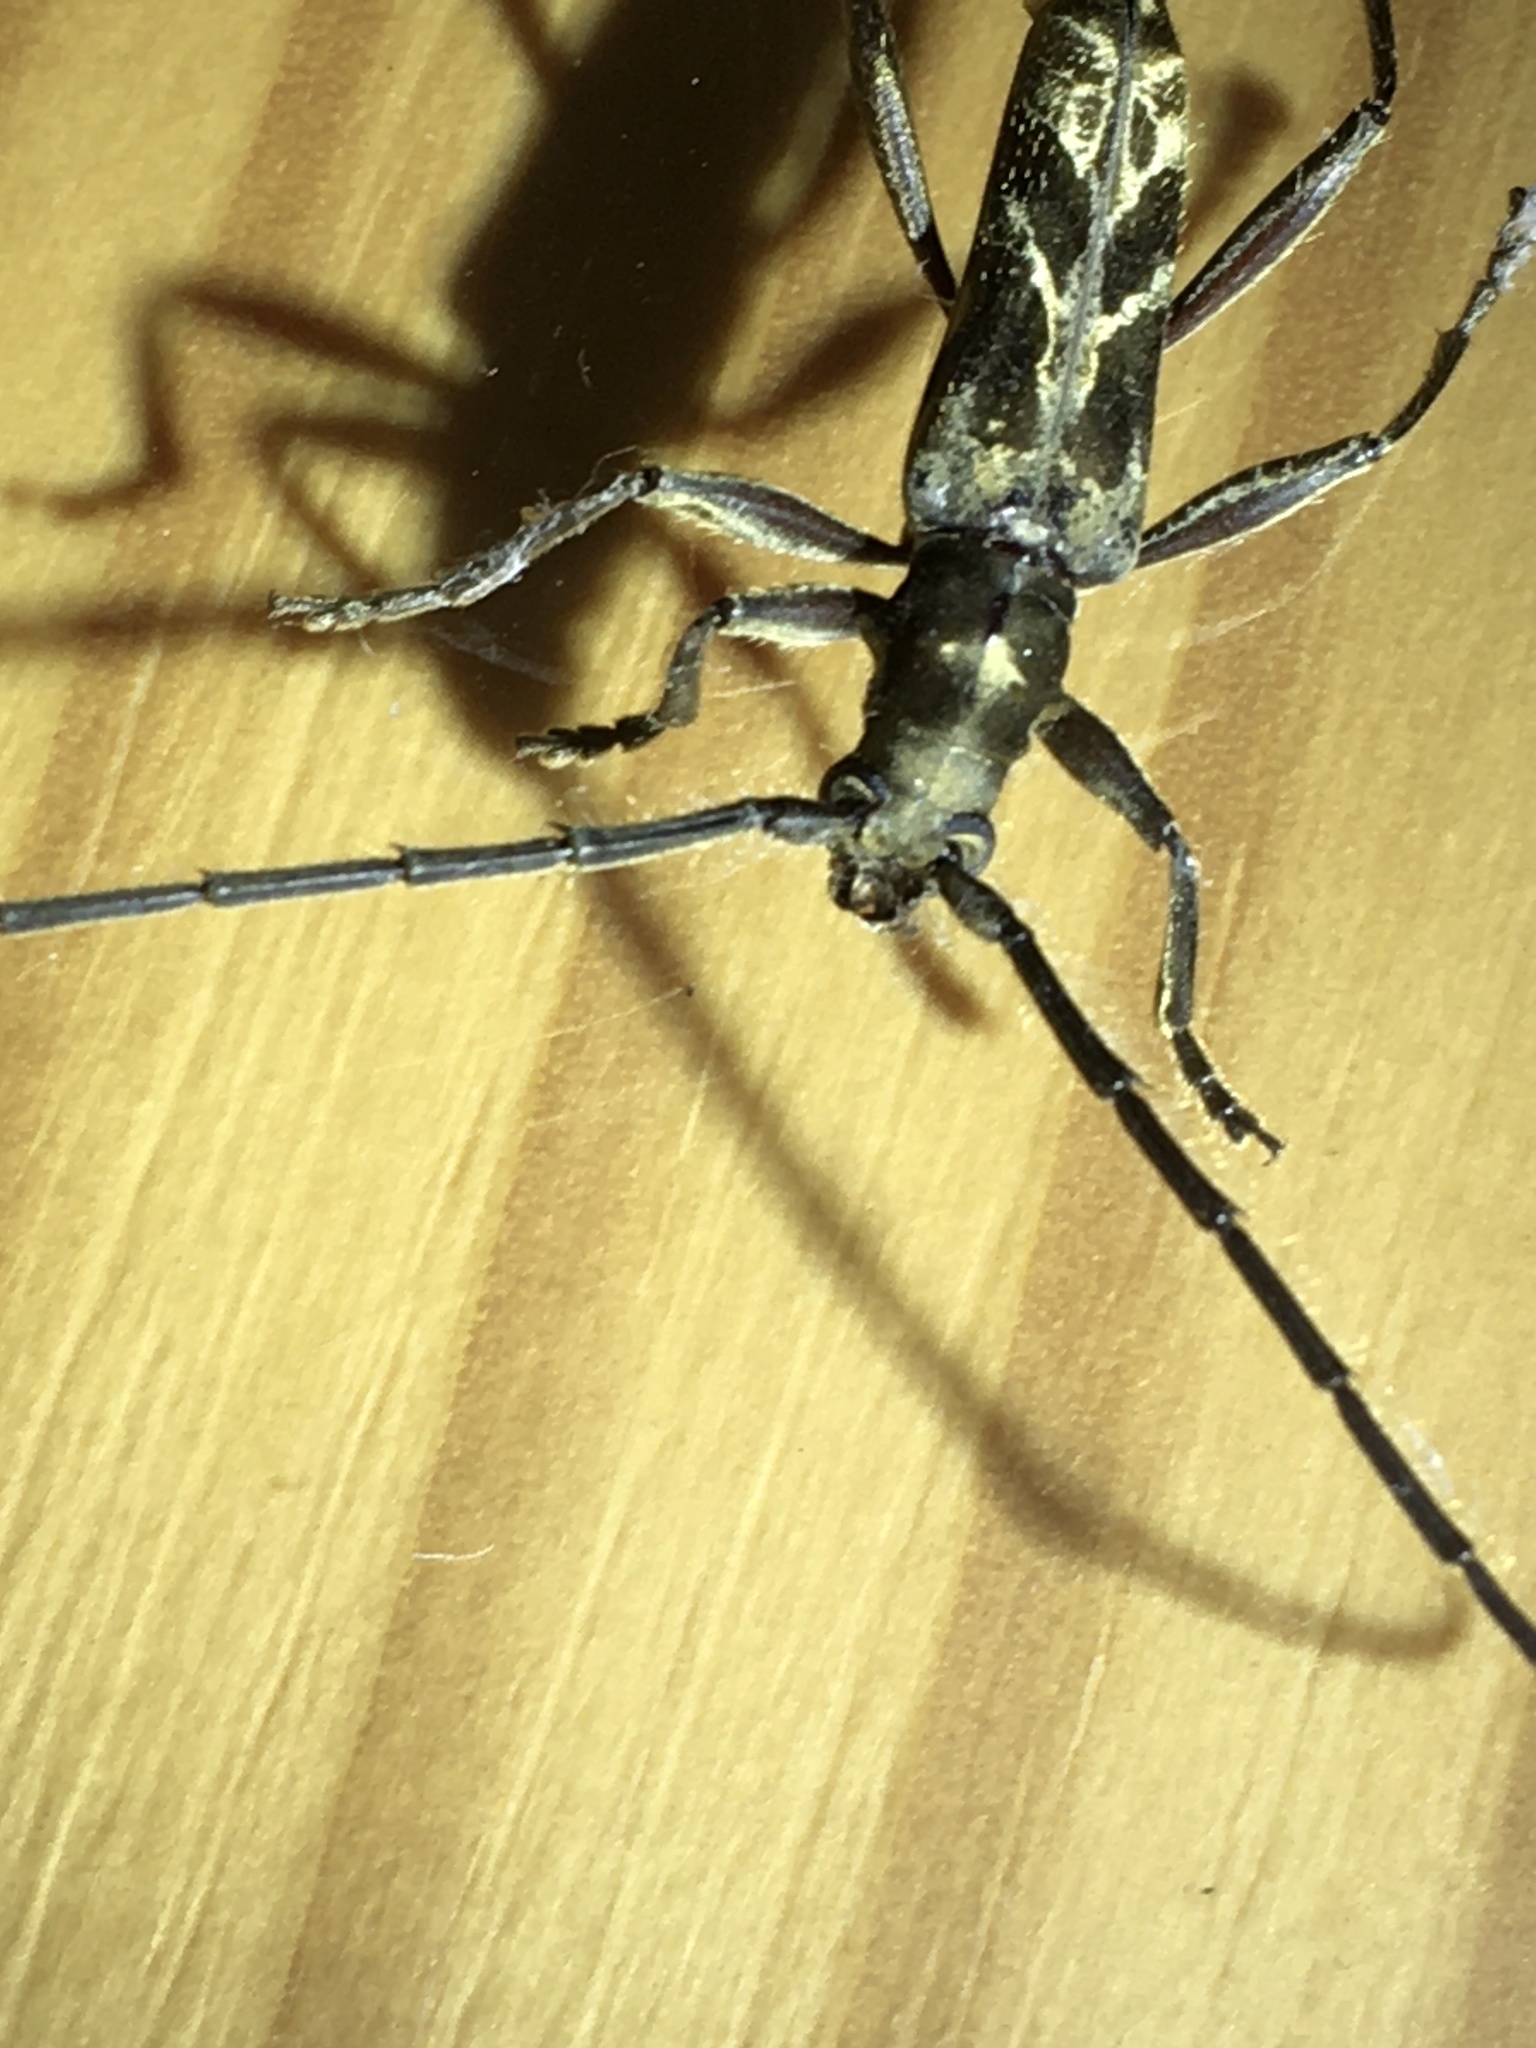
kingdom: Animalia
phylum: Arthropoda
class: Insecta
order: Coleoptera
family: Cerambycidae
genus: Mallocera
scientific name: Mallocera glauca
